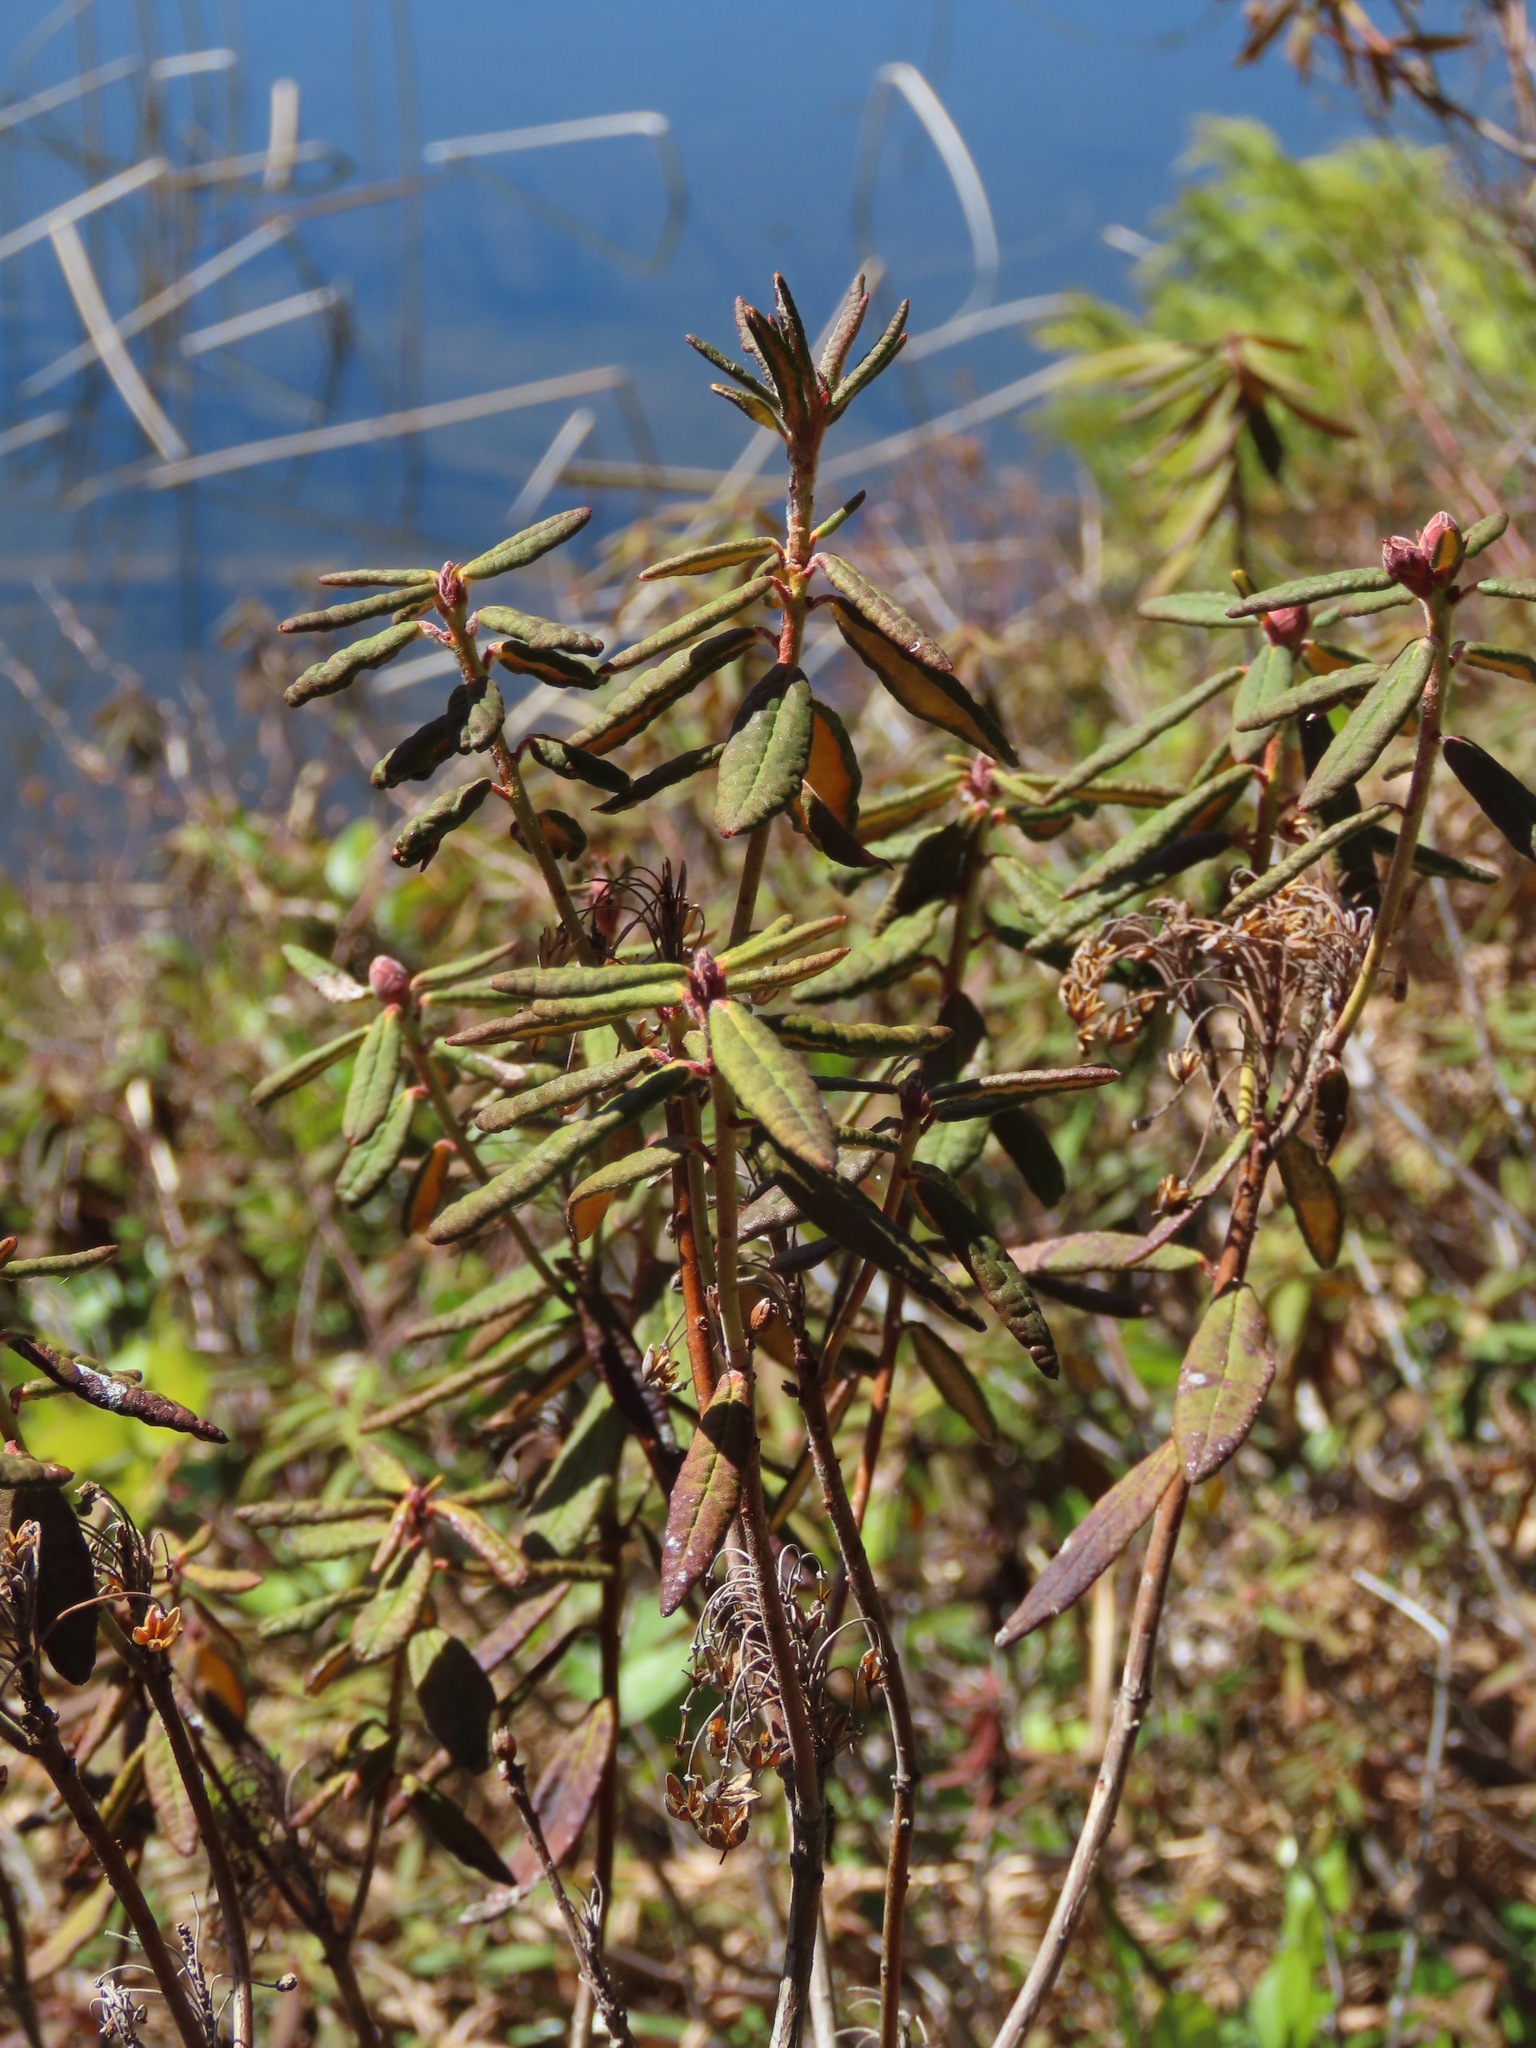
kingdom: Plantae
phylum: Tracheophyta
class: Magnoliopsida
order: Ericales
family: Ericaceae
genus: Rhododendron
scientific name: Rhododendron groenlandicum
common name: Bog labrador tea
